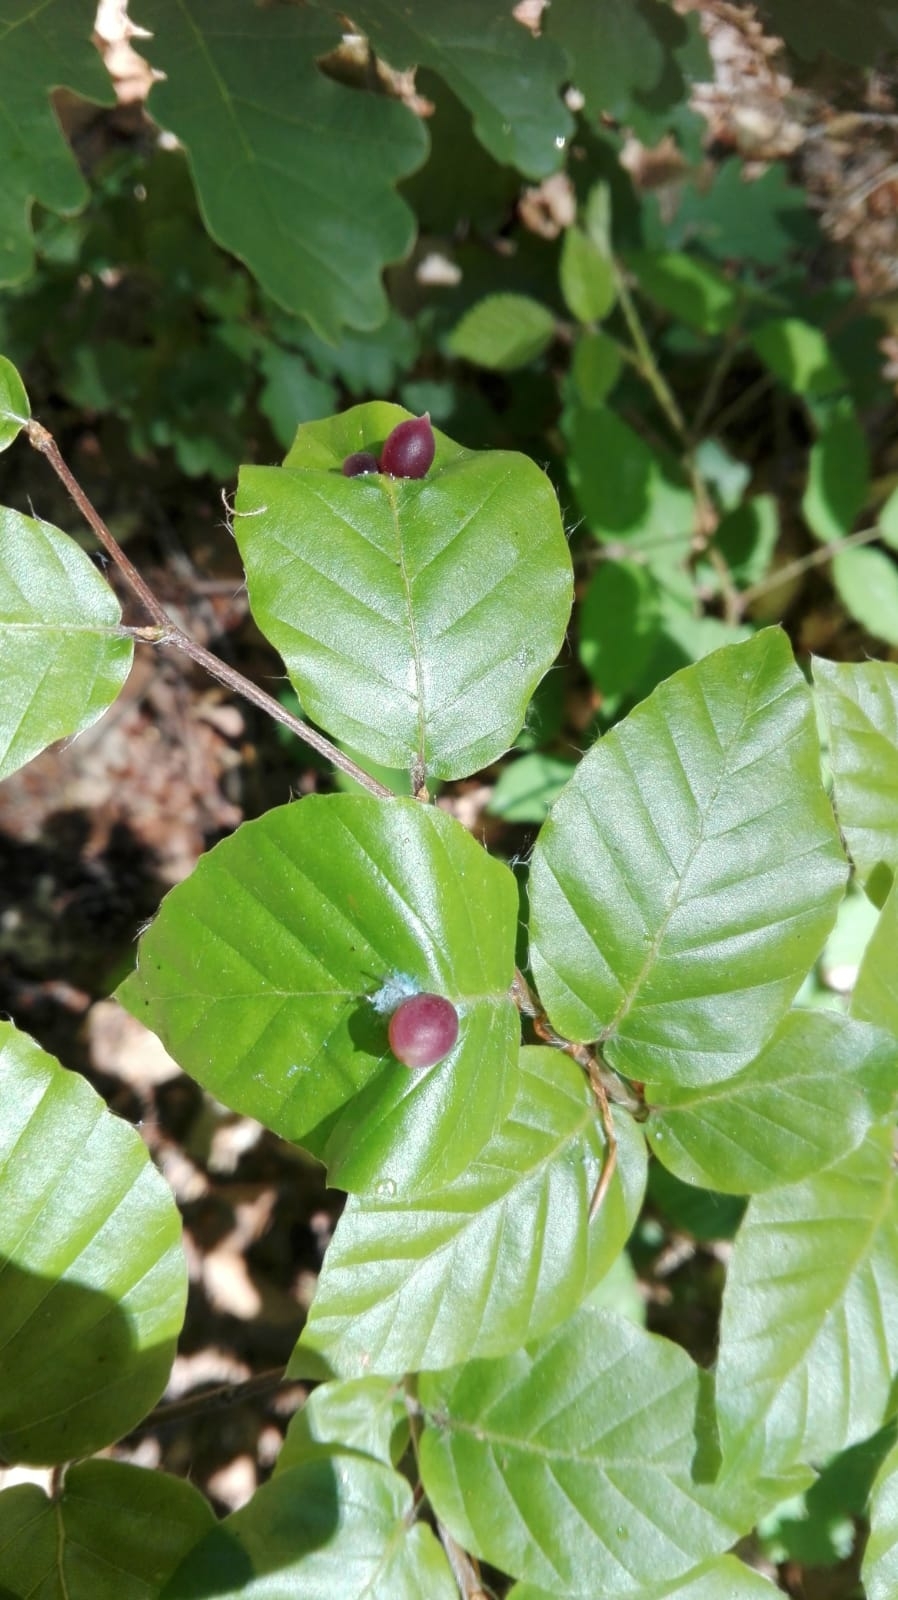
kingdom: Animalia
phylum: Arthropoda
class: Insecta
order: Diptera
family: Cecidomyiidae
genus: Mikiola
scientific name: Mikiola fagi
